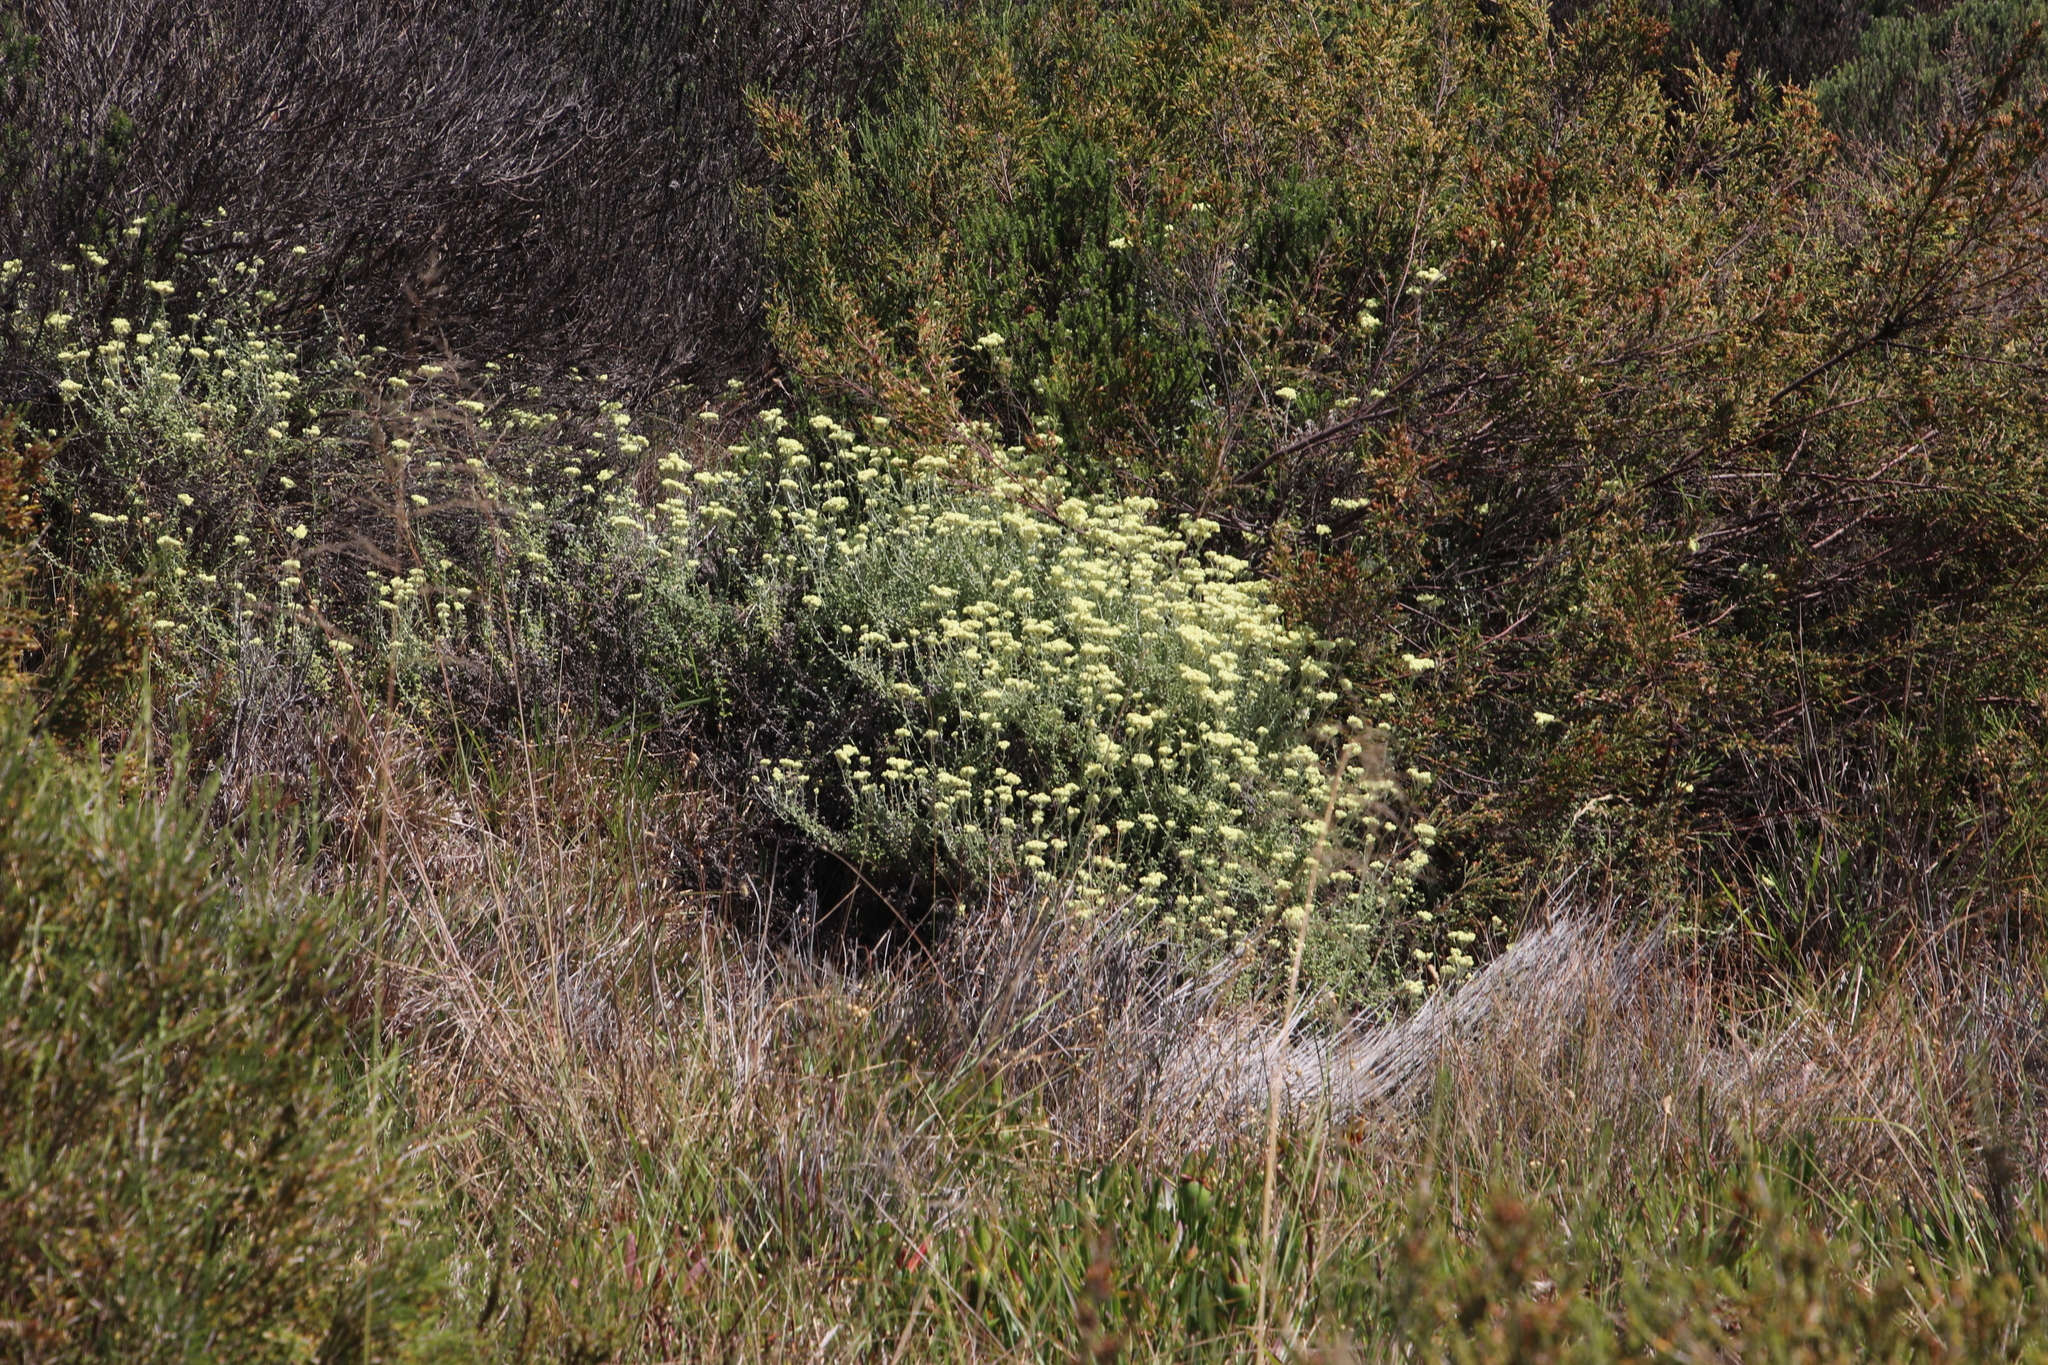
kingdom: Plantae
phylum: Tracheophyta
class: Magnoliopsida
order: Asterales
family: Asteraceae
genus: Helichrysum
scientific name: Helichrysum patulum
